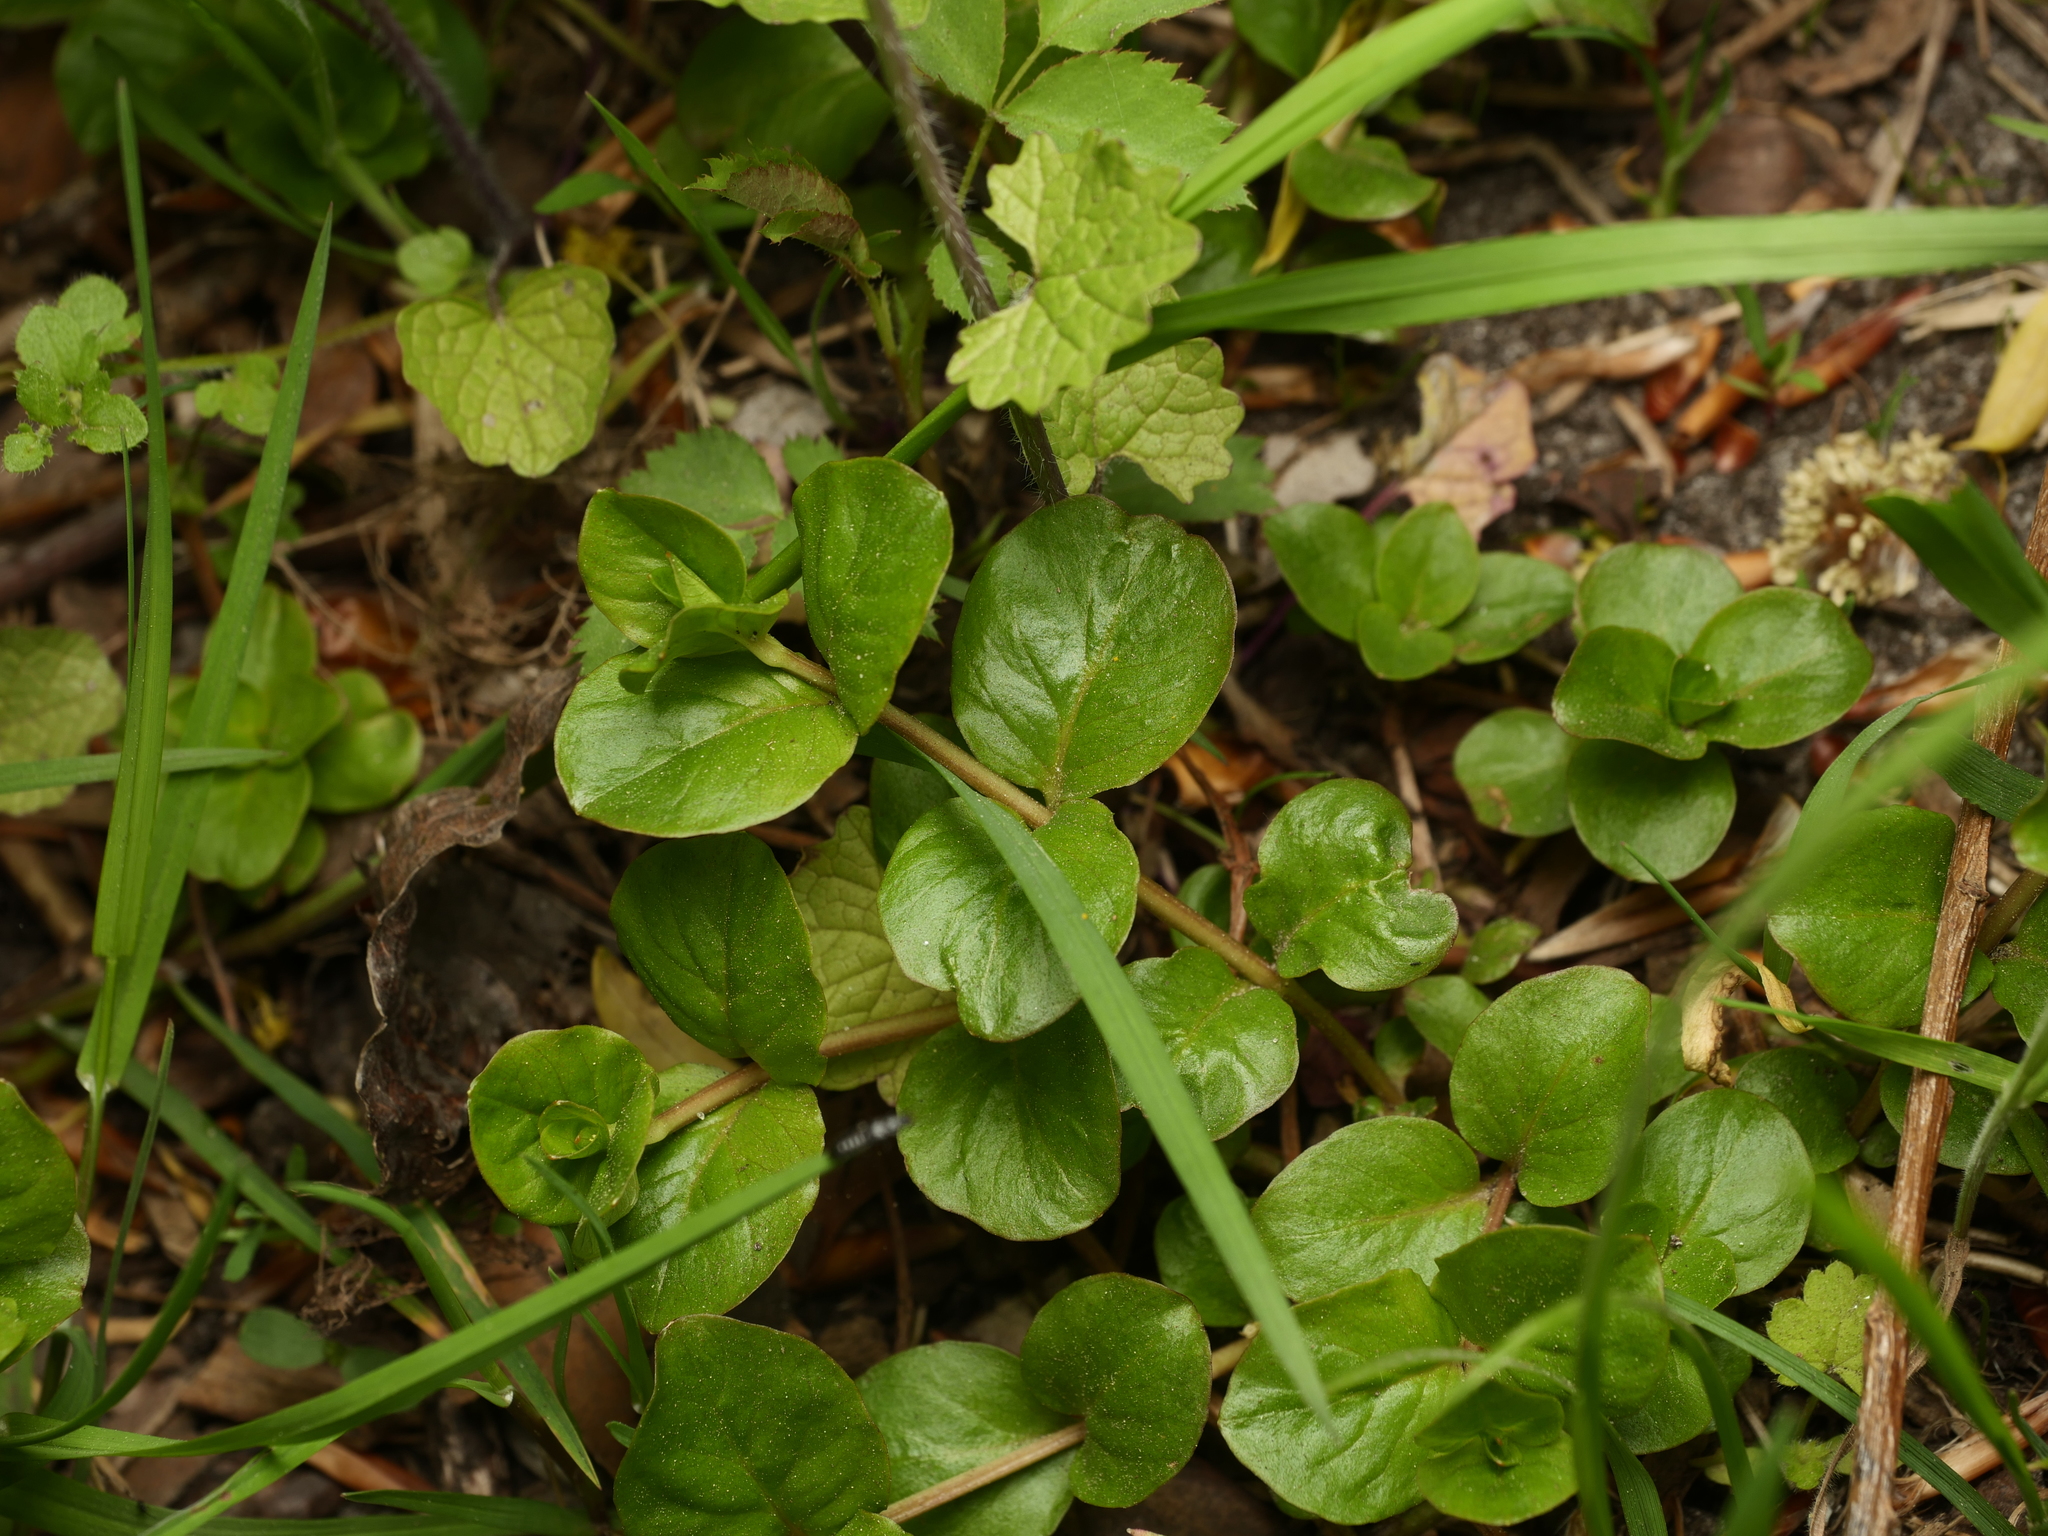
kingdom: Plantae
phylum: Tracheophyta
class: Magnoliopsida
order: Ericales
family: Primulaceae
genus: Lysimachia
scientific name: Lysimachia nummularia
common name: Moneywort
